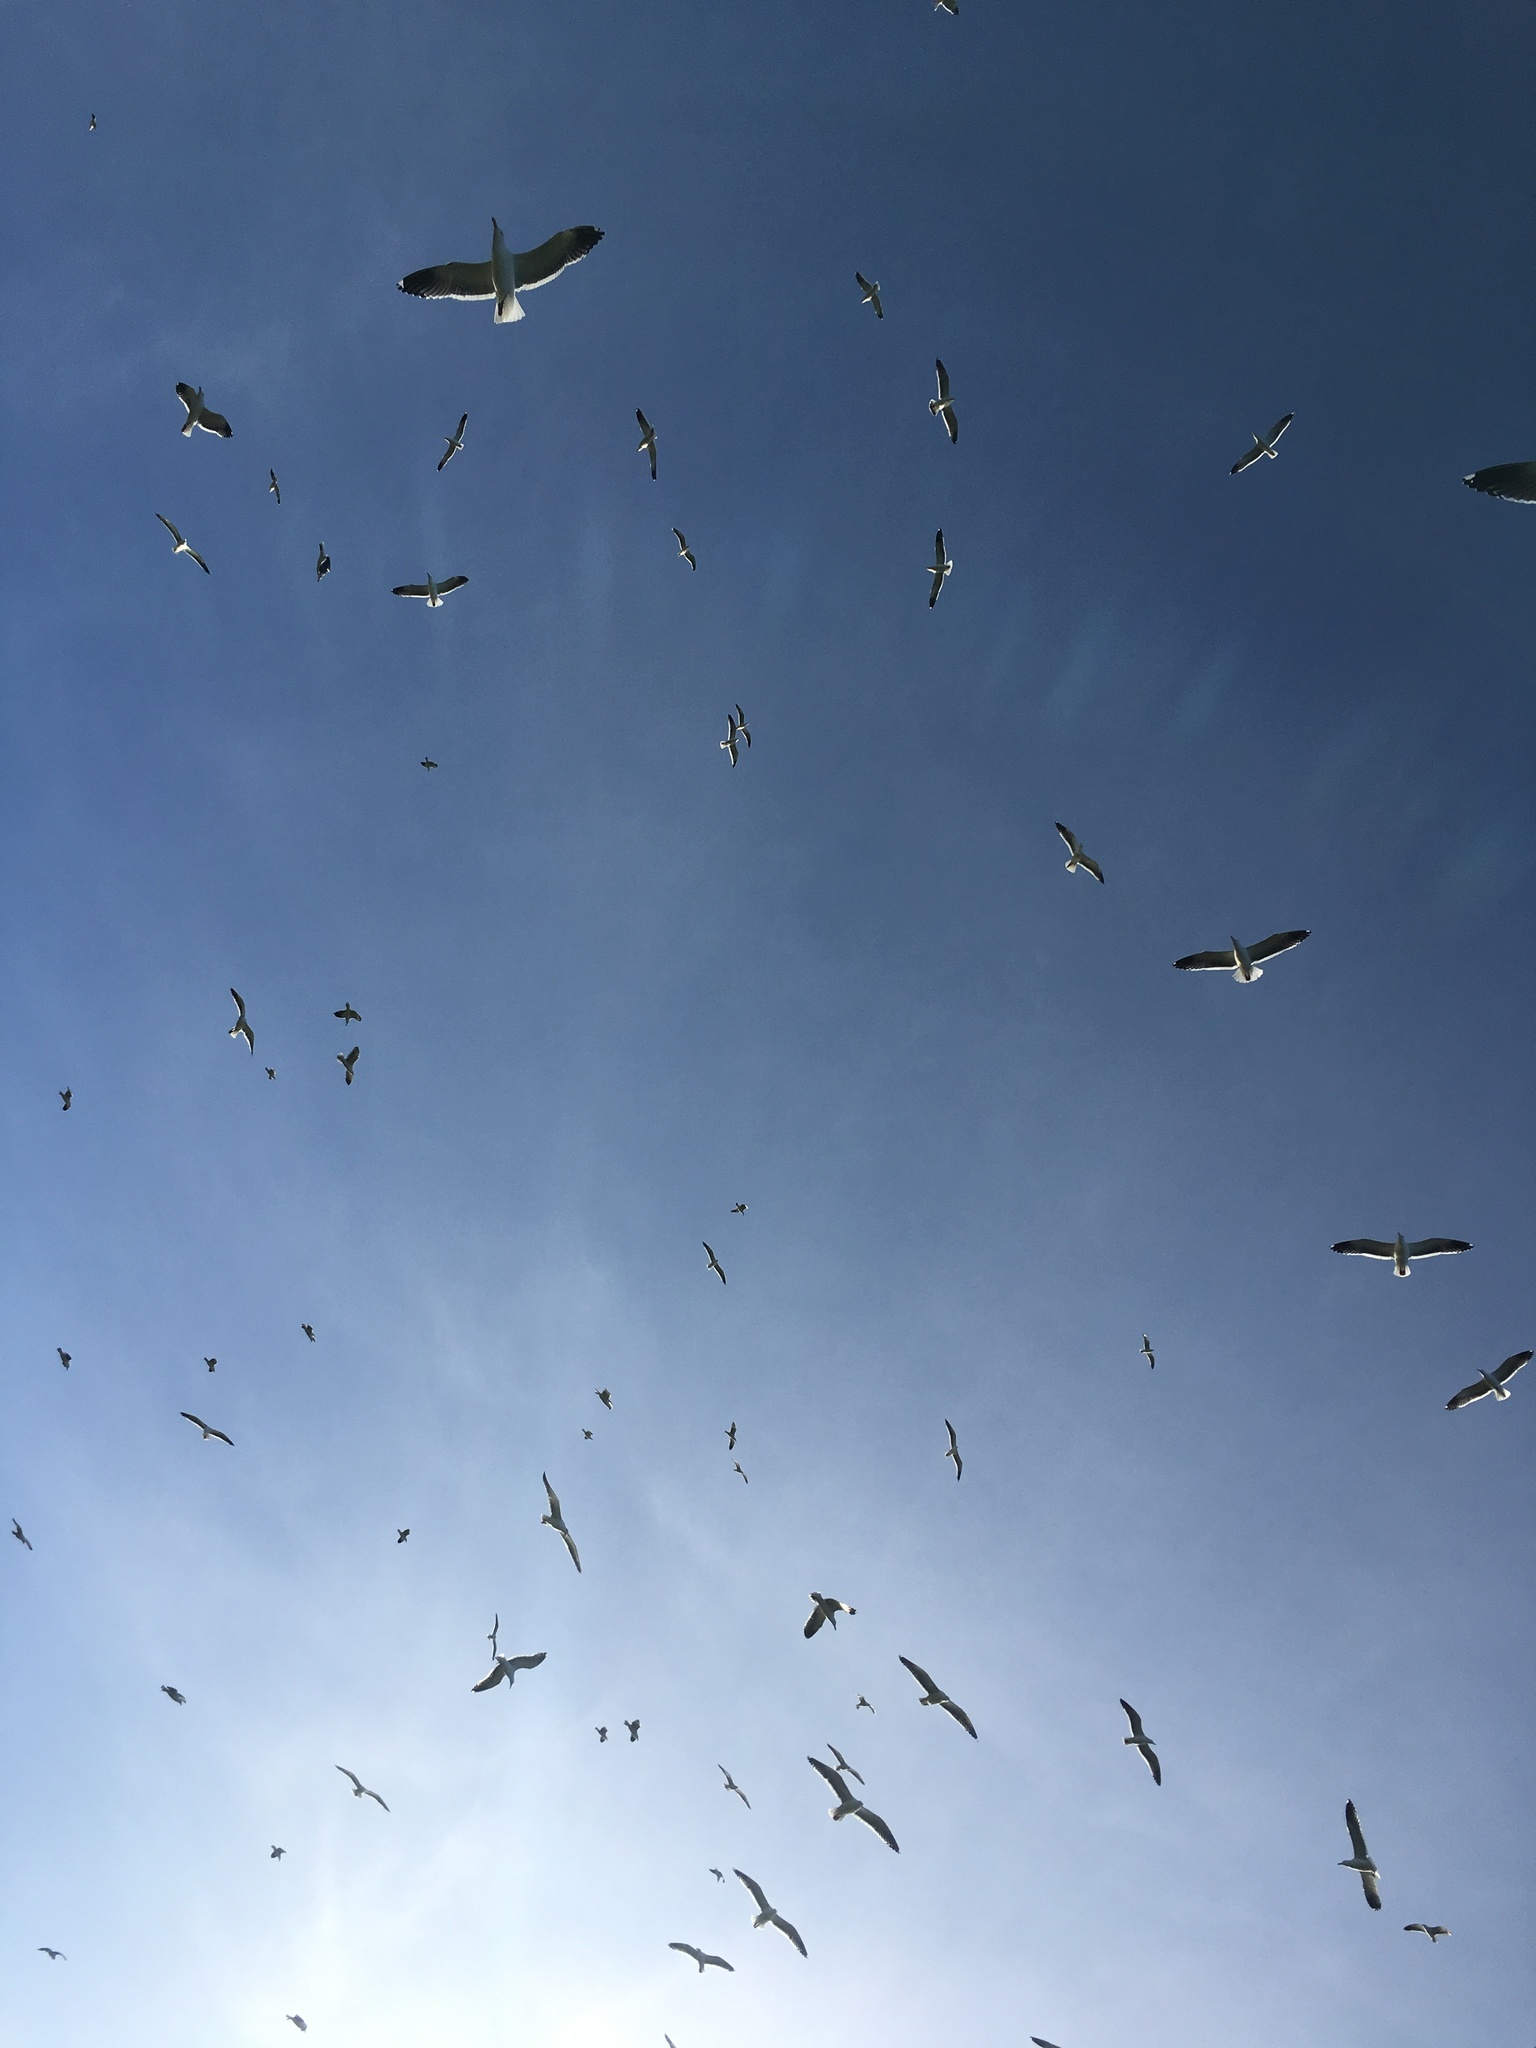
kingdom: Animalia
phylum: Chordata
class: Aves
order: Charadriiformes
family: Laridae
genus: Larus
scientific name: Larus occidentalis
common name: Western gull
